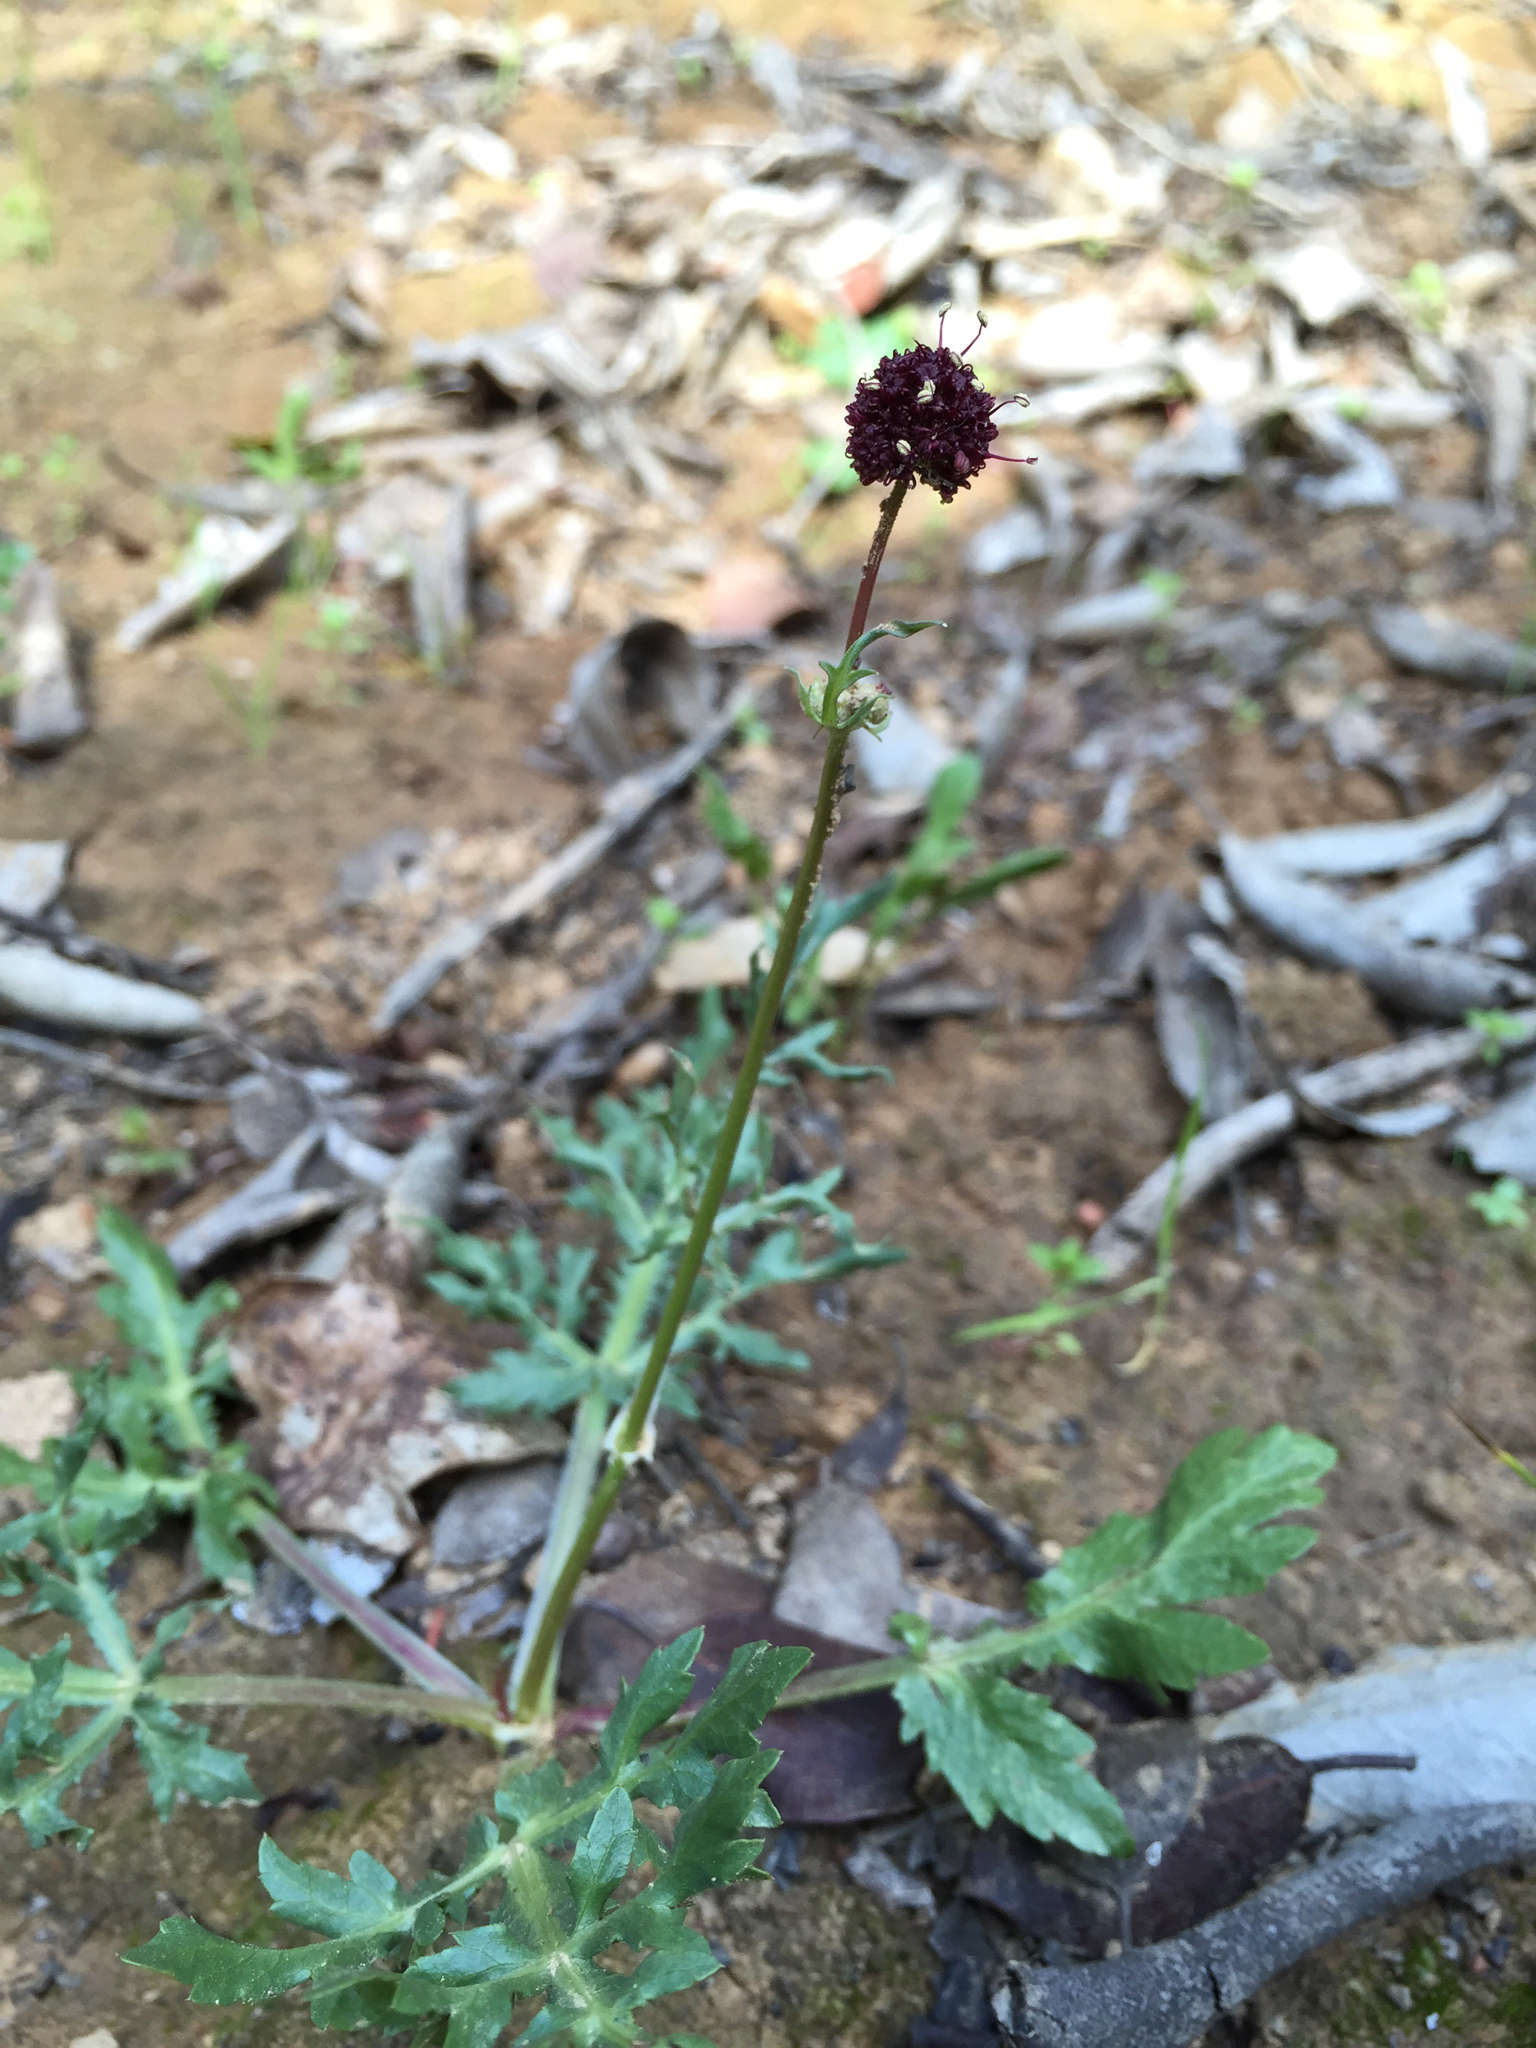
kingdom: Plantae
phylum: Tracheophyta
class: Magnoliopsida
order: Apiales
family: Apiaceae
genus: Sanicula
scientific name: Sanicula bipinnatifida
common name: Shoe-buttons
